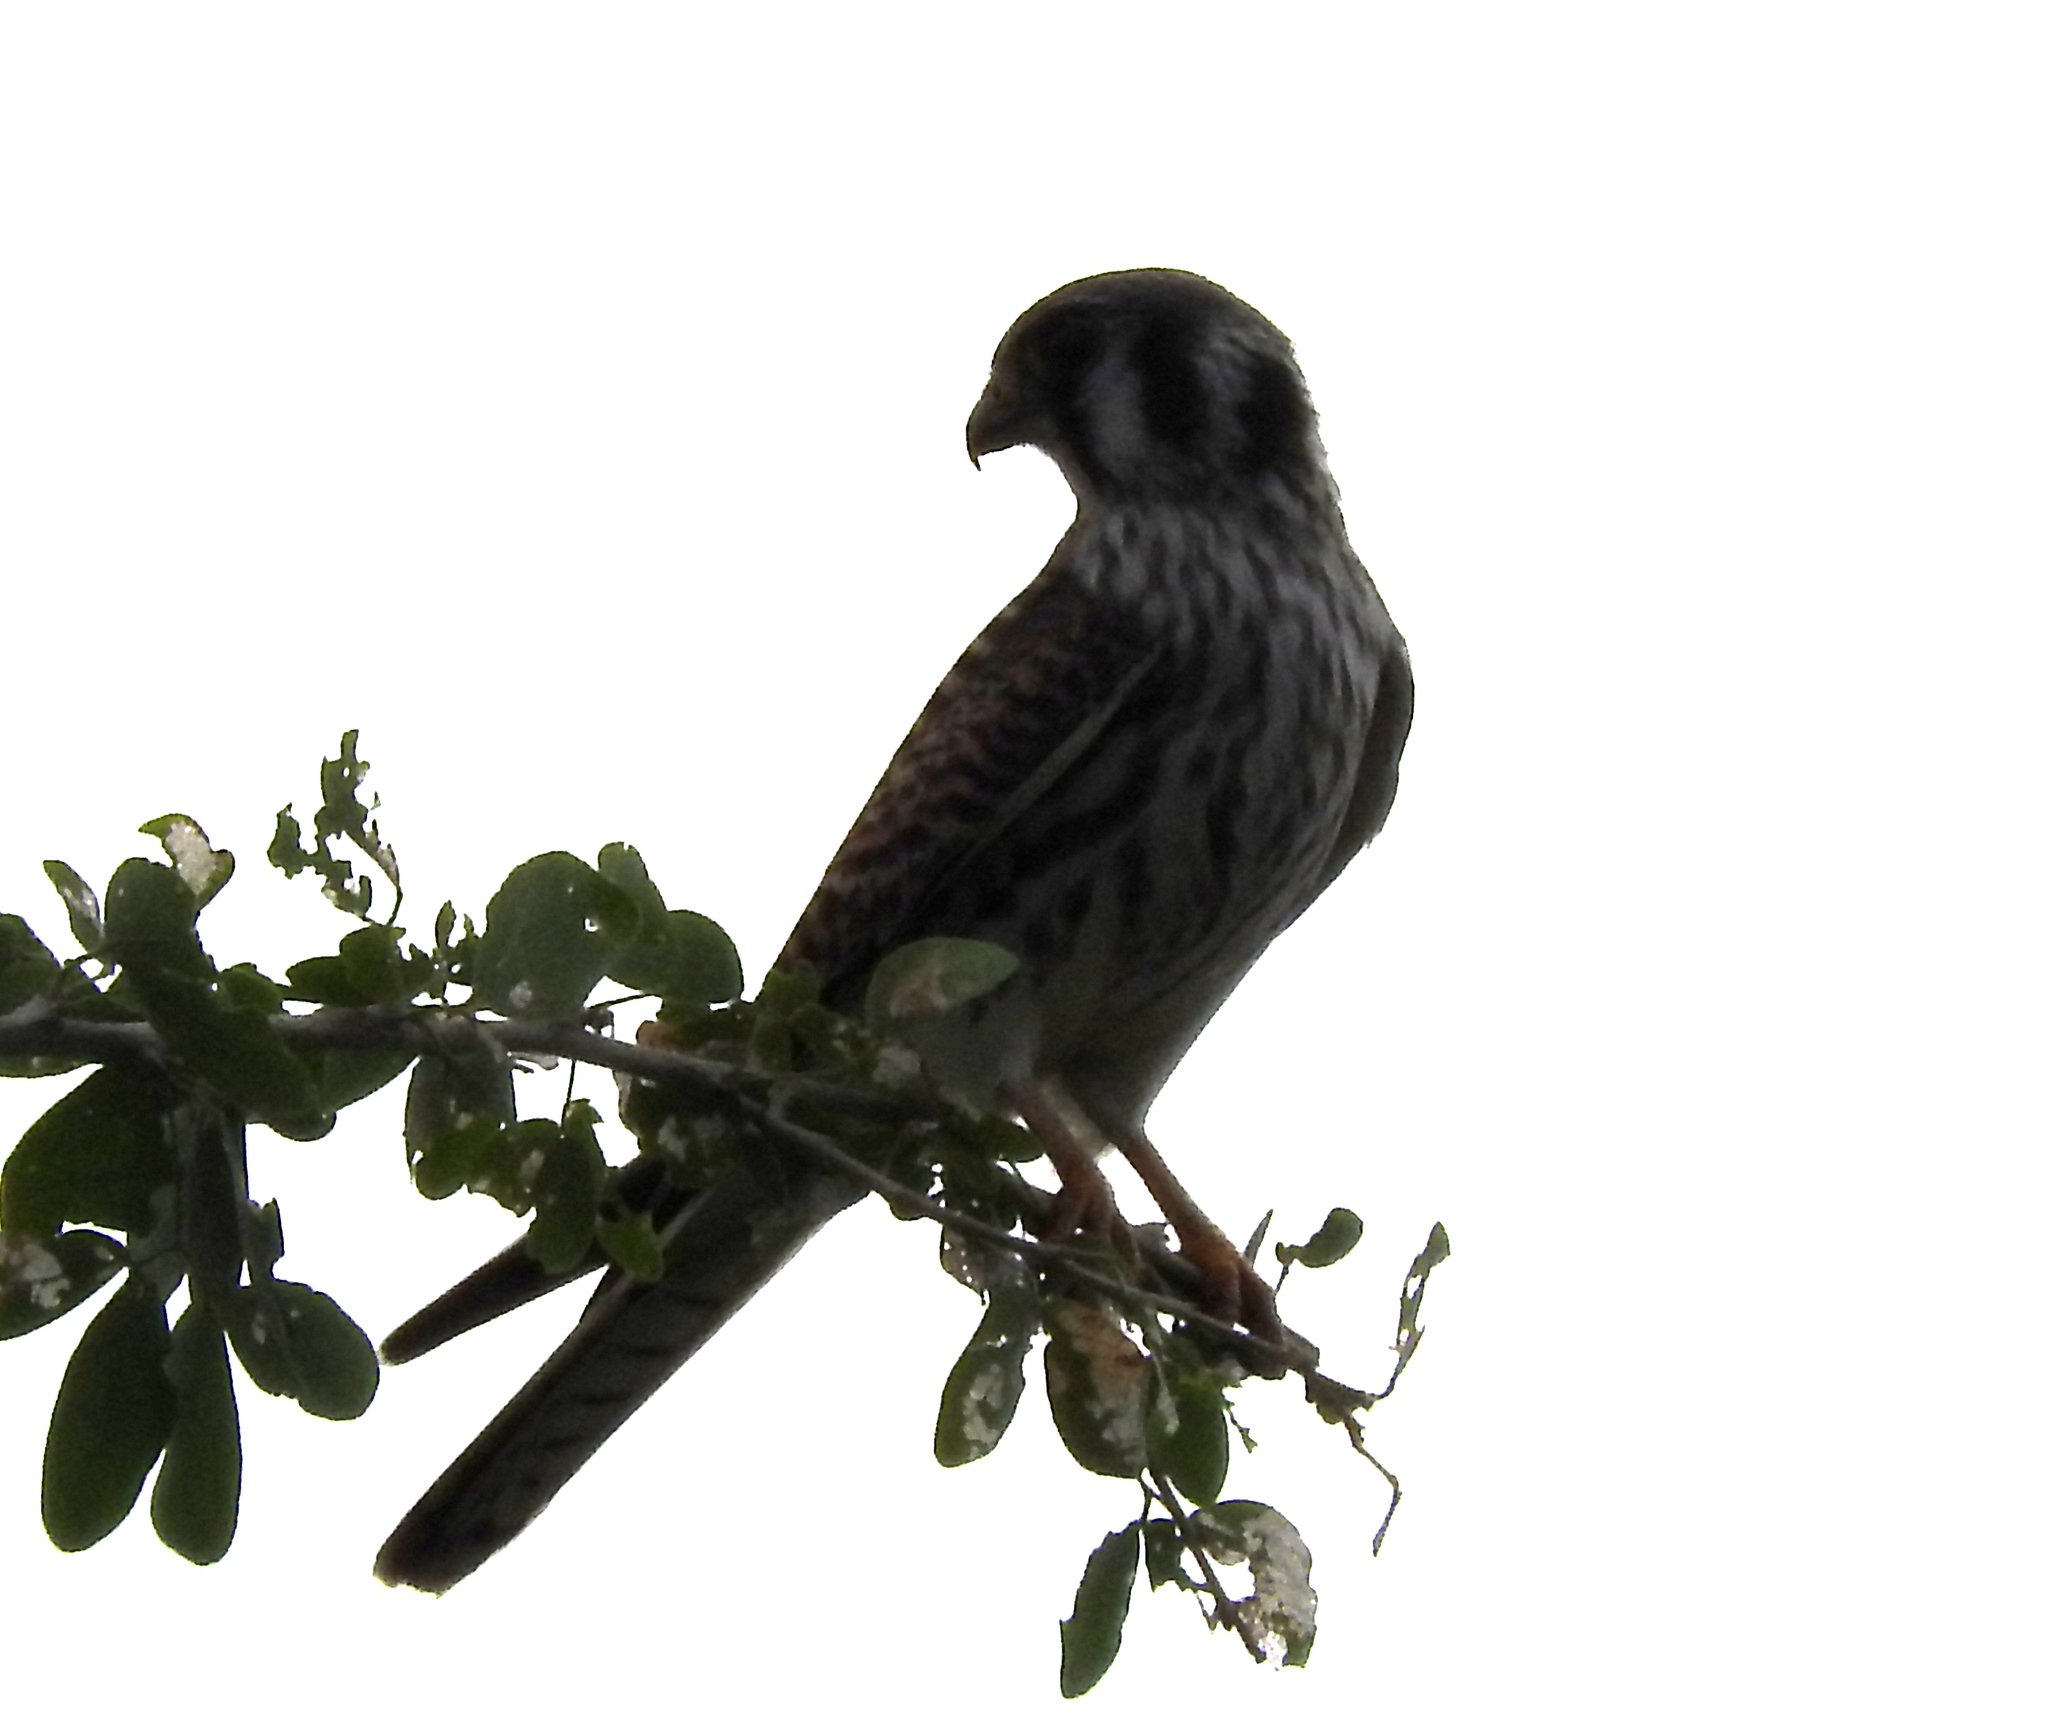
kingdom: Animalia
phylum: Chordata
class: Aves
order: Falconiformes
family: Falconidae
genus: Falco
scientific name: Falco sparverius
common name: American kestrel
